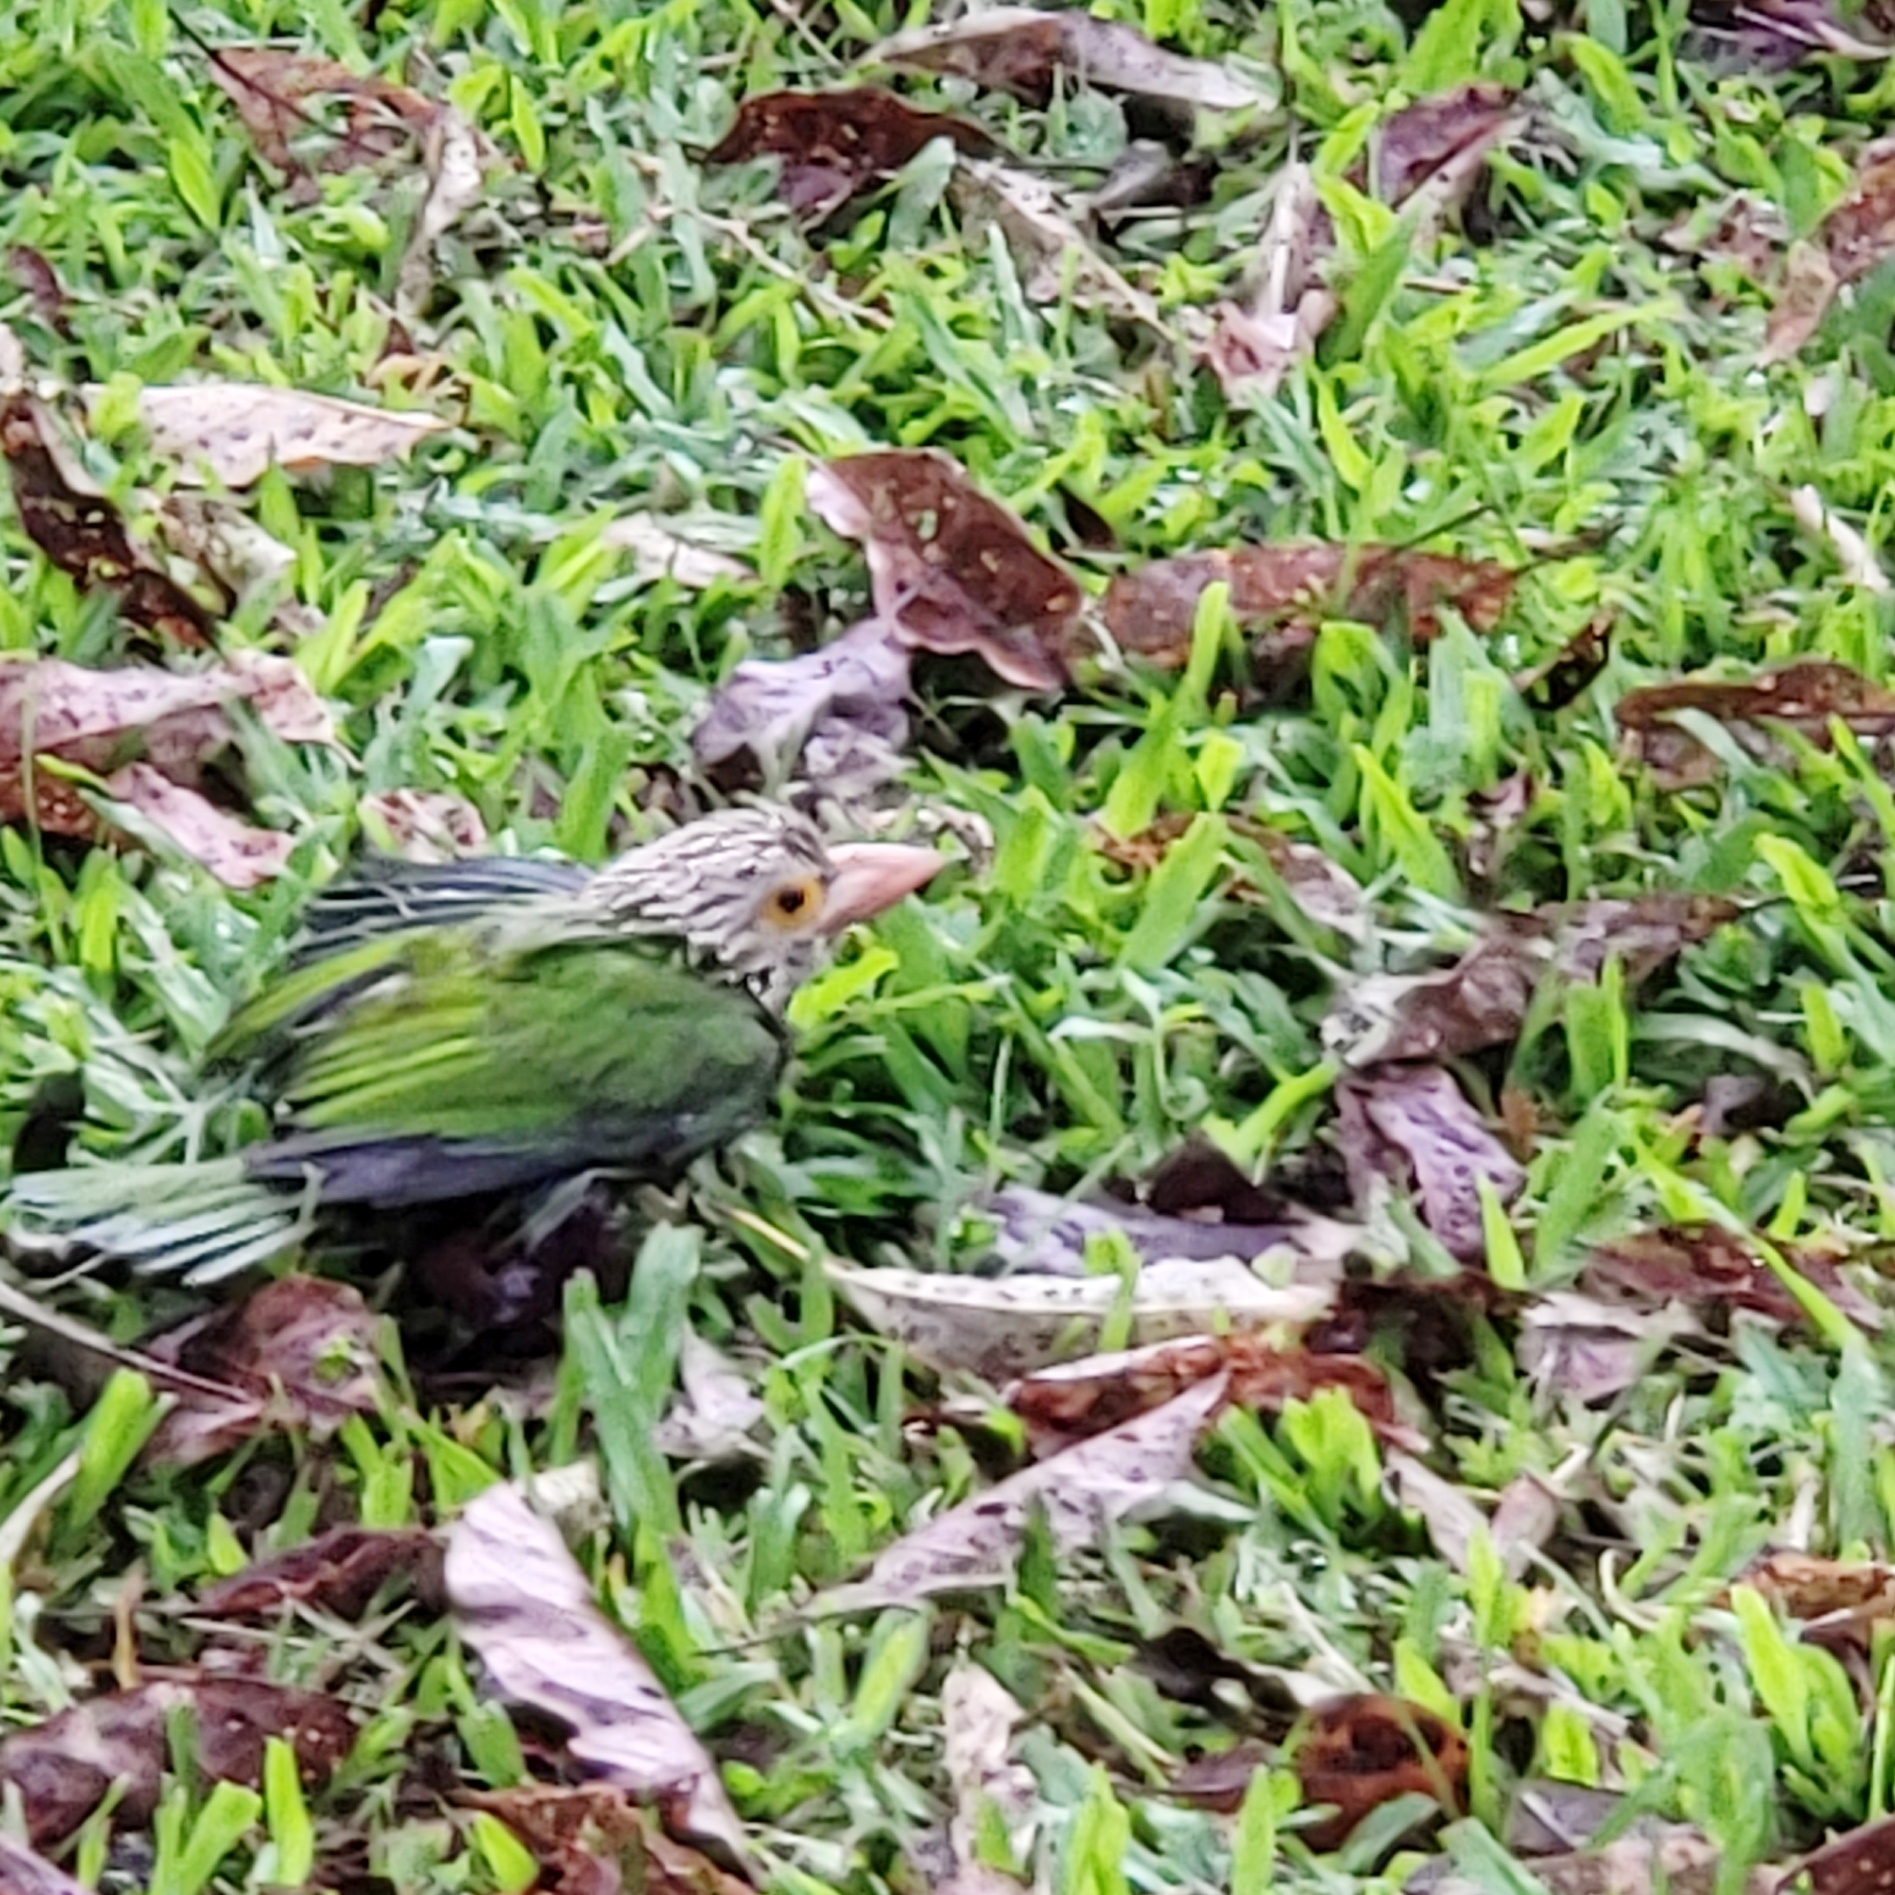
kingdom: Animalia
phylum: Chordata
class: Aves
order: Piciformes
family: Megalaimidae
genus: Psilopogon
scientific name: Psilopogon lineatus
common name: Lineated barbet
